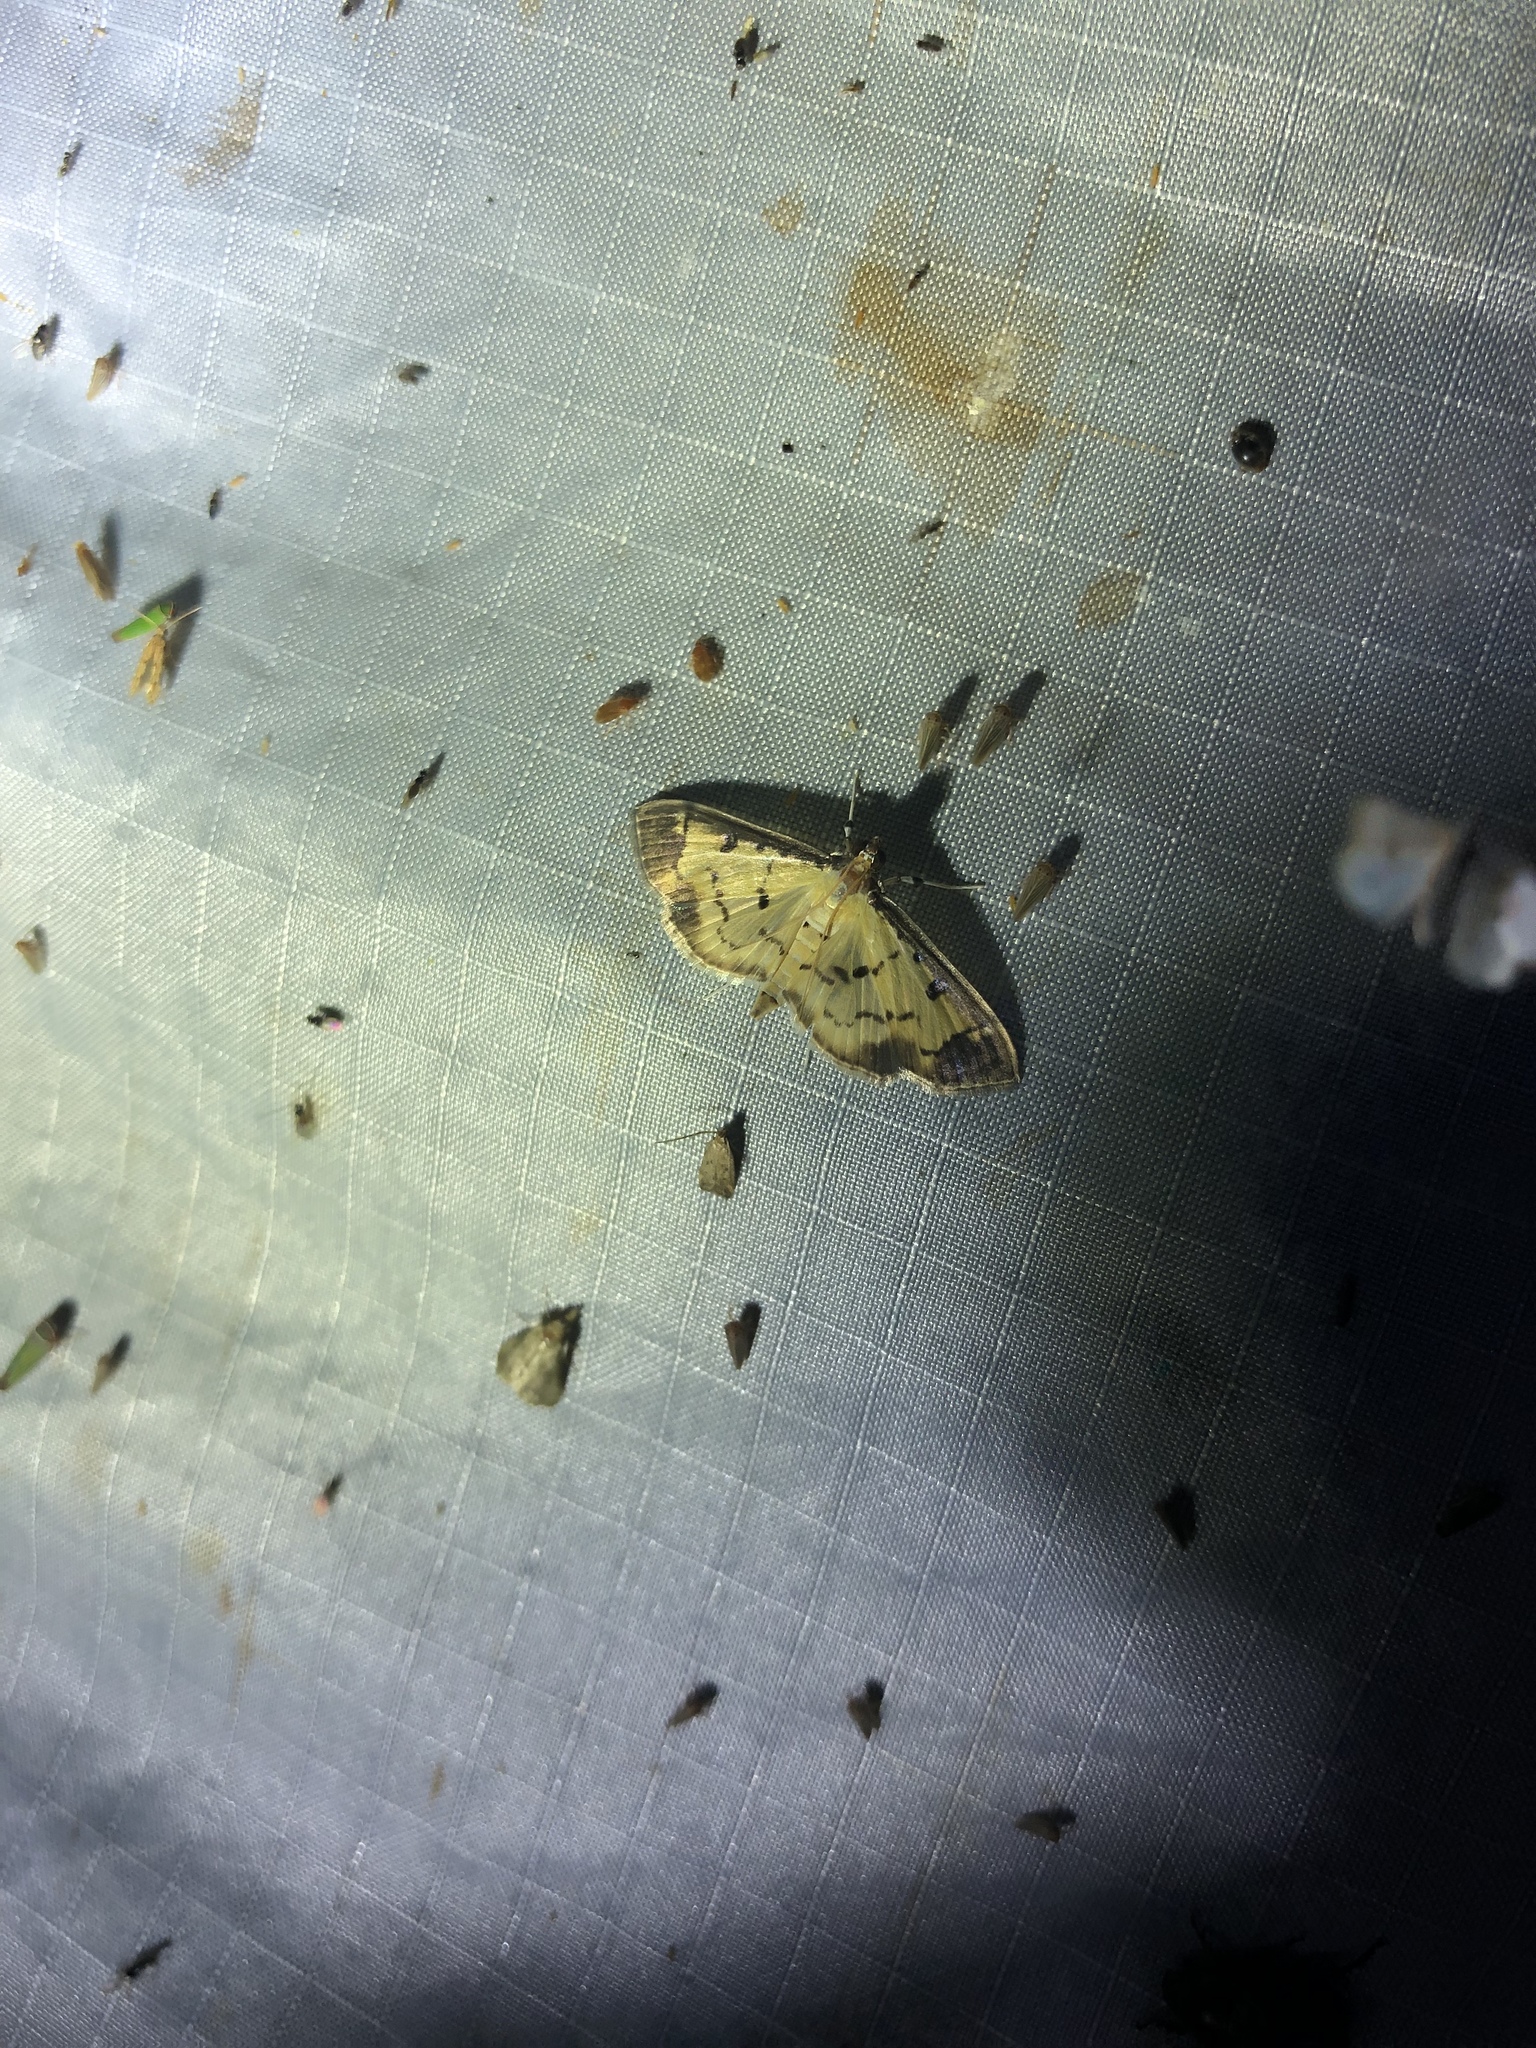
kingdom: Animalia
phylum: Arthropoda
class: Insecta
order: Lepidoptera
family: Crambidae
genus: Eulepte
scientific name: Eulepte concordalis
